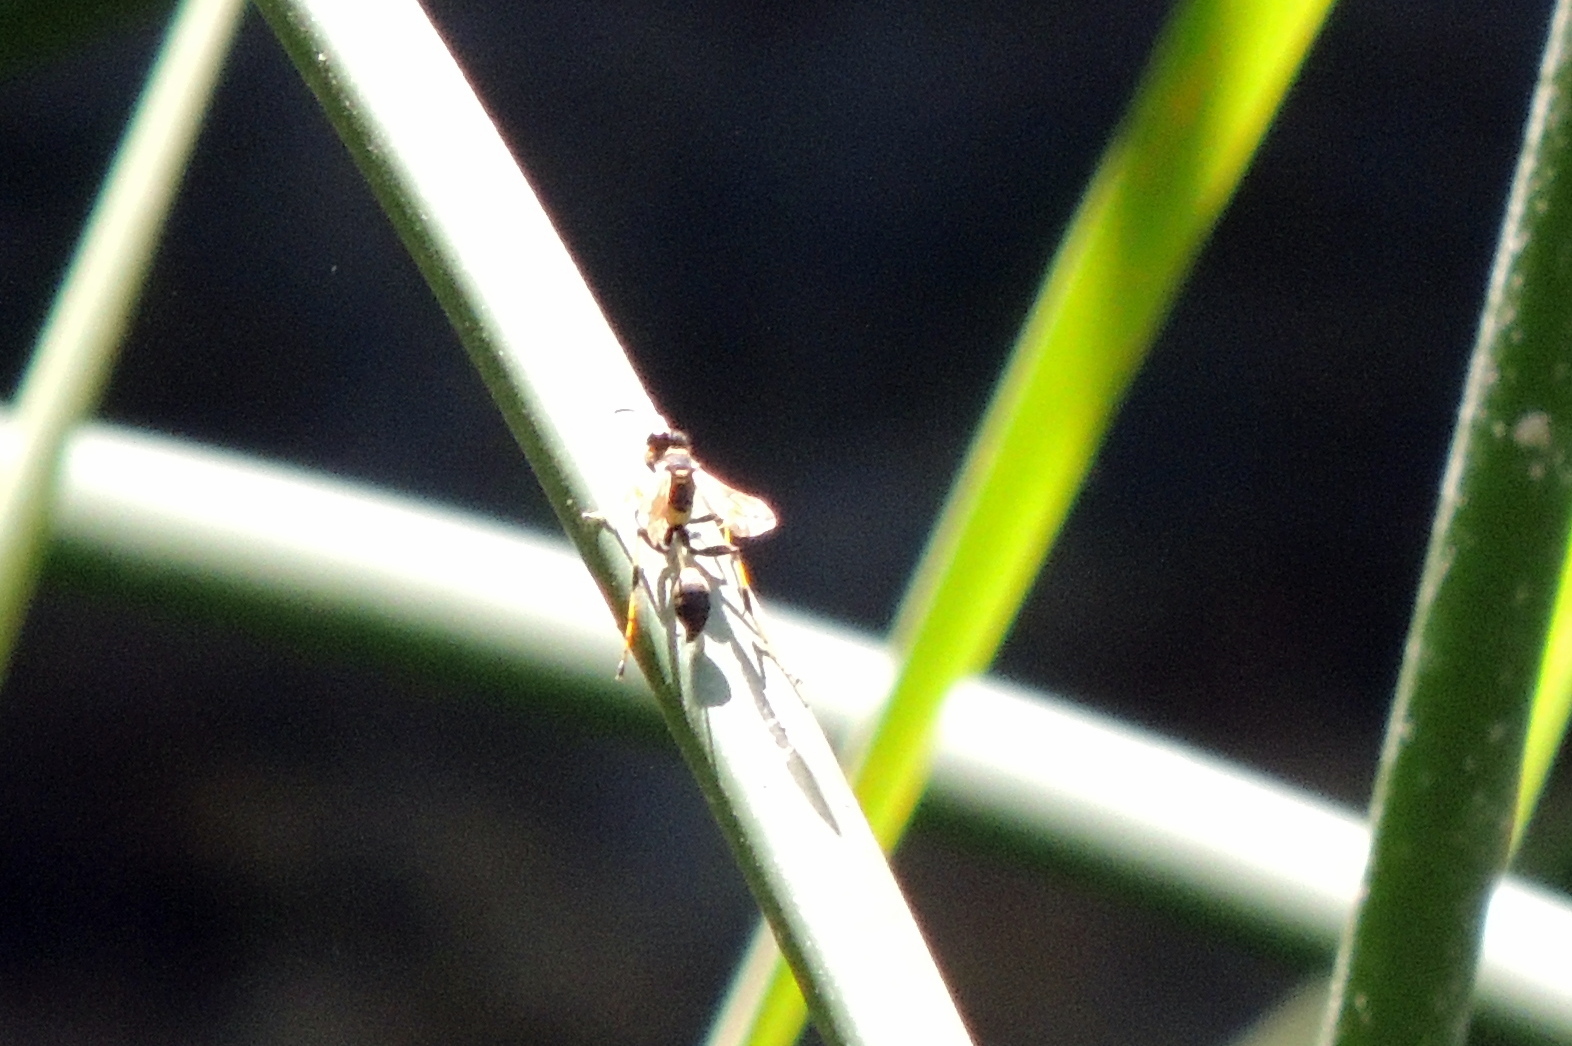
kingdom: Animalia
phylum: Arthropoda
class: Insecta
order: Hymenoptera
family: Sphecidae
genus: Sceliphron
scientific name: Sceliphron caementarium
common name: Mud dauber
